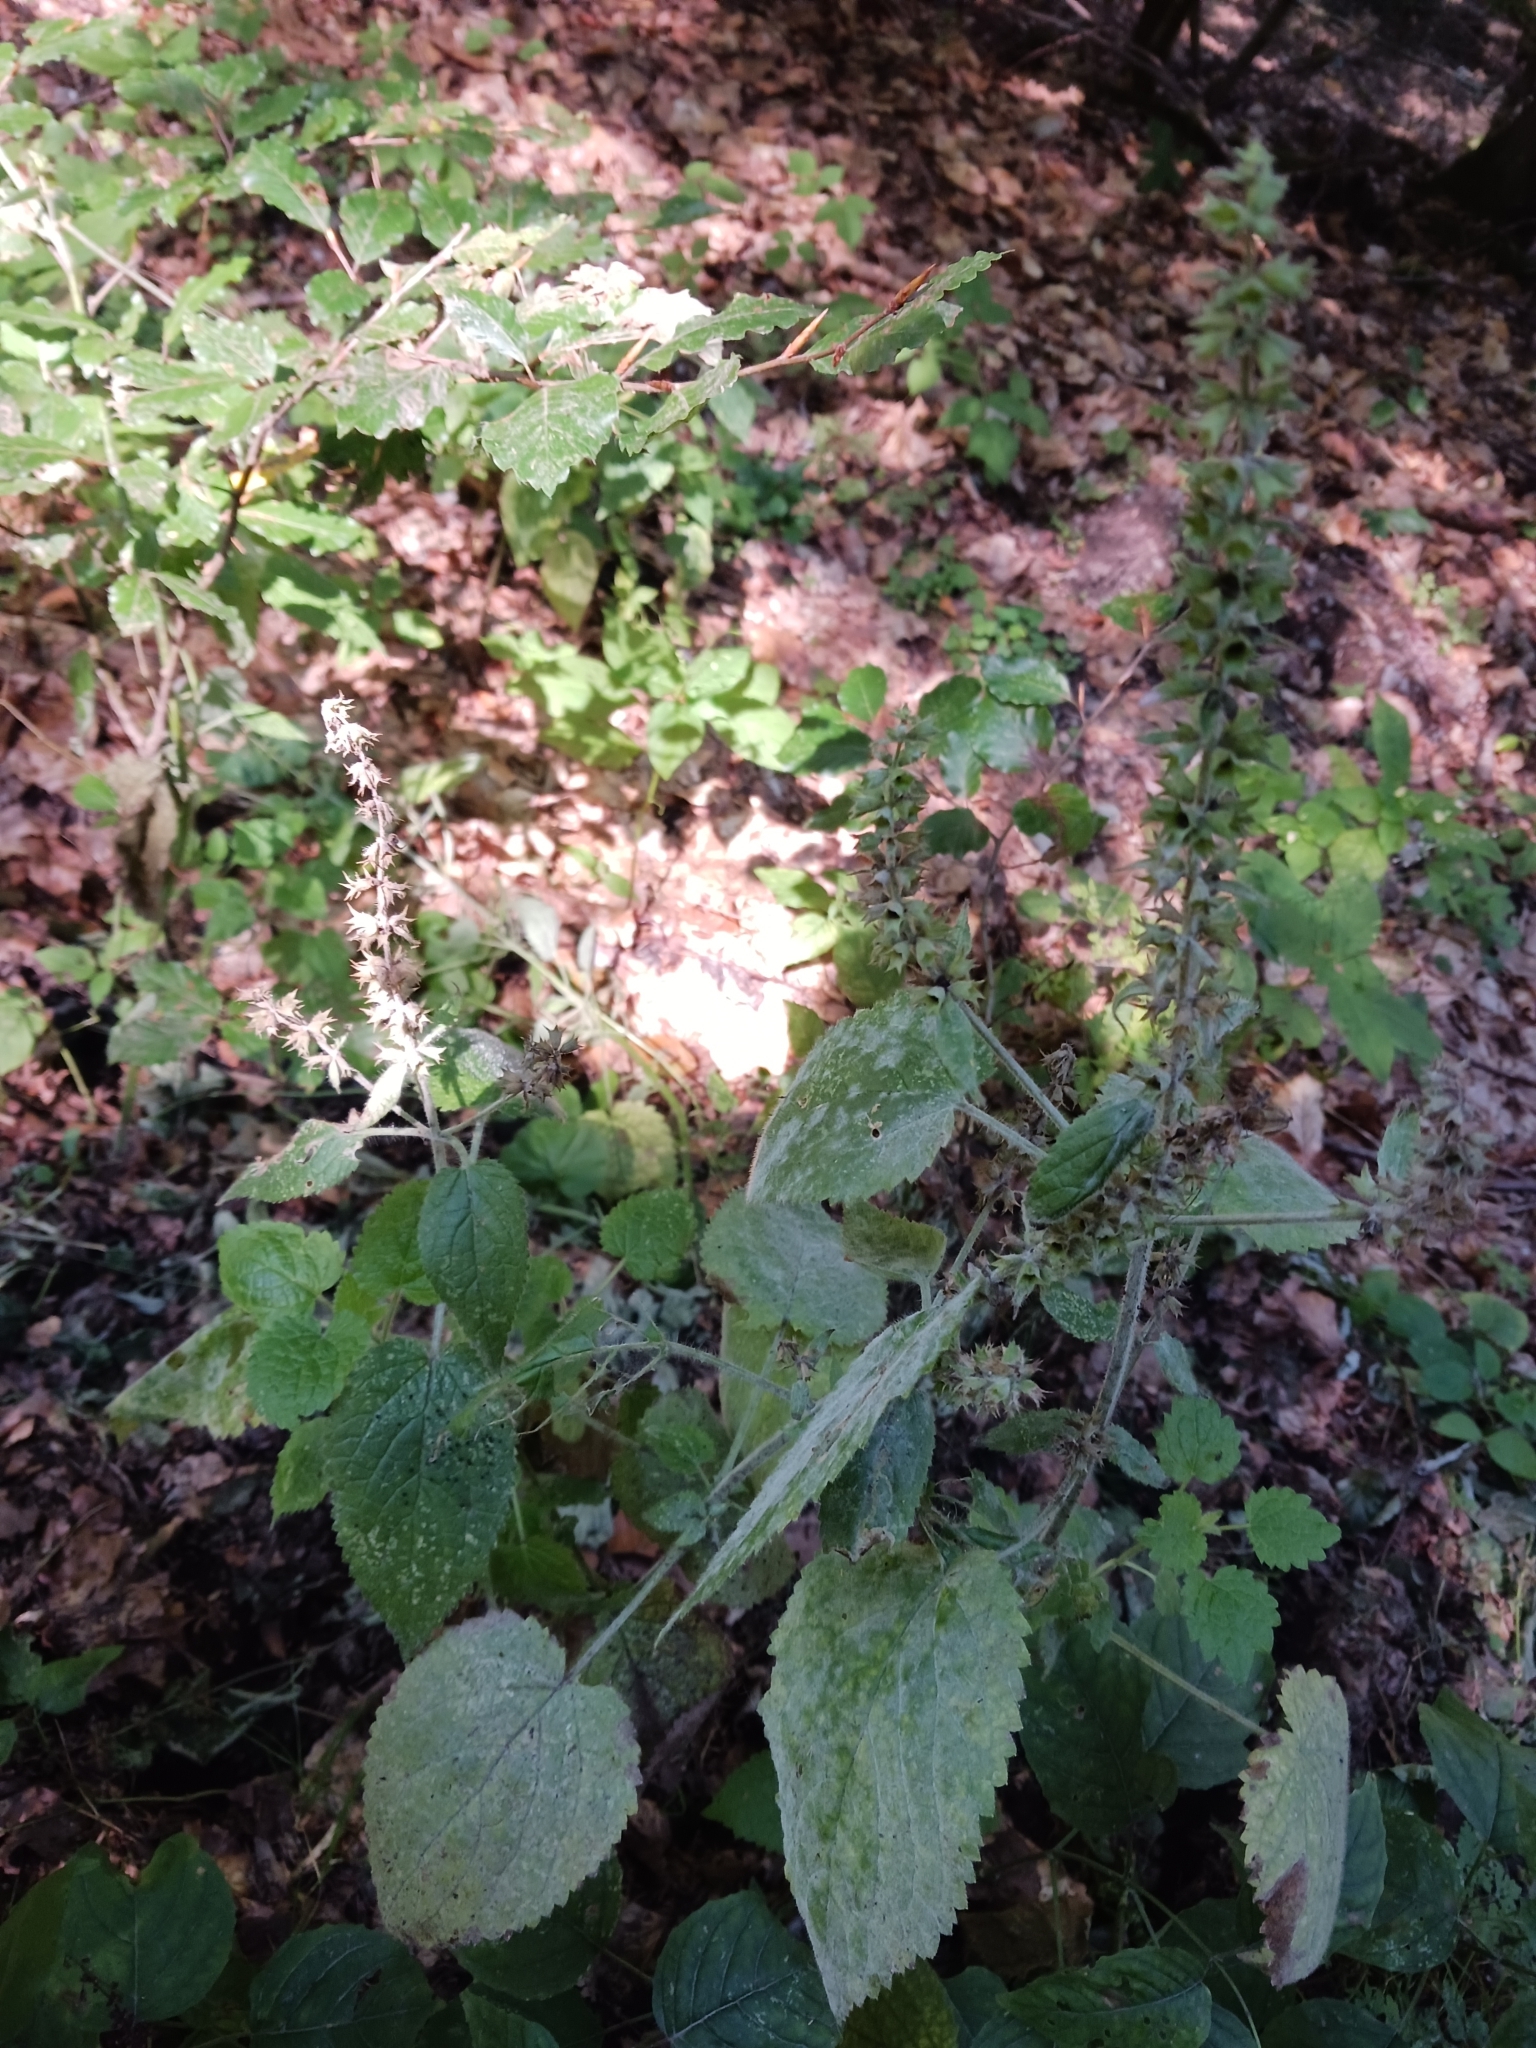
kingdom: Fungi
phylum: Ascomycota
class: Leotiomycetes
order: Helotiales
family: Erysiphaceae
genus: Neoerysiphe
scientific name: Neoerysiphe galeopsidis
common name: Mint mildew
